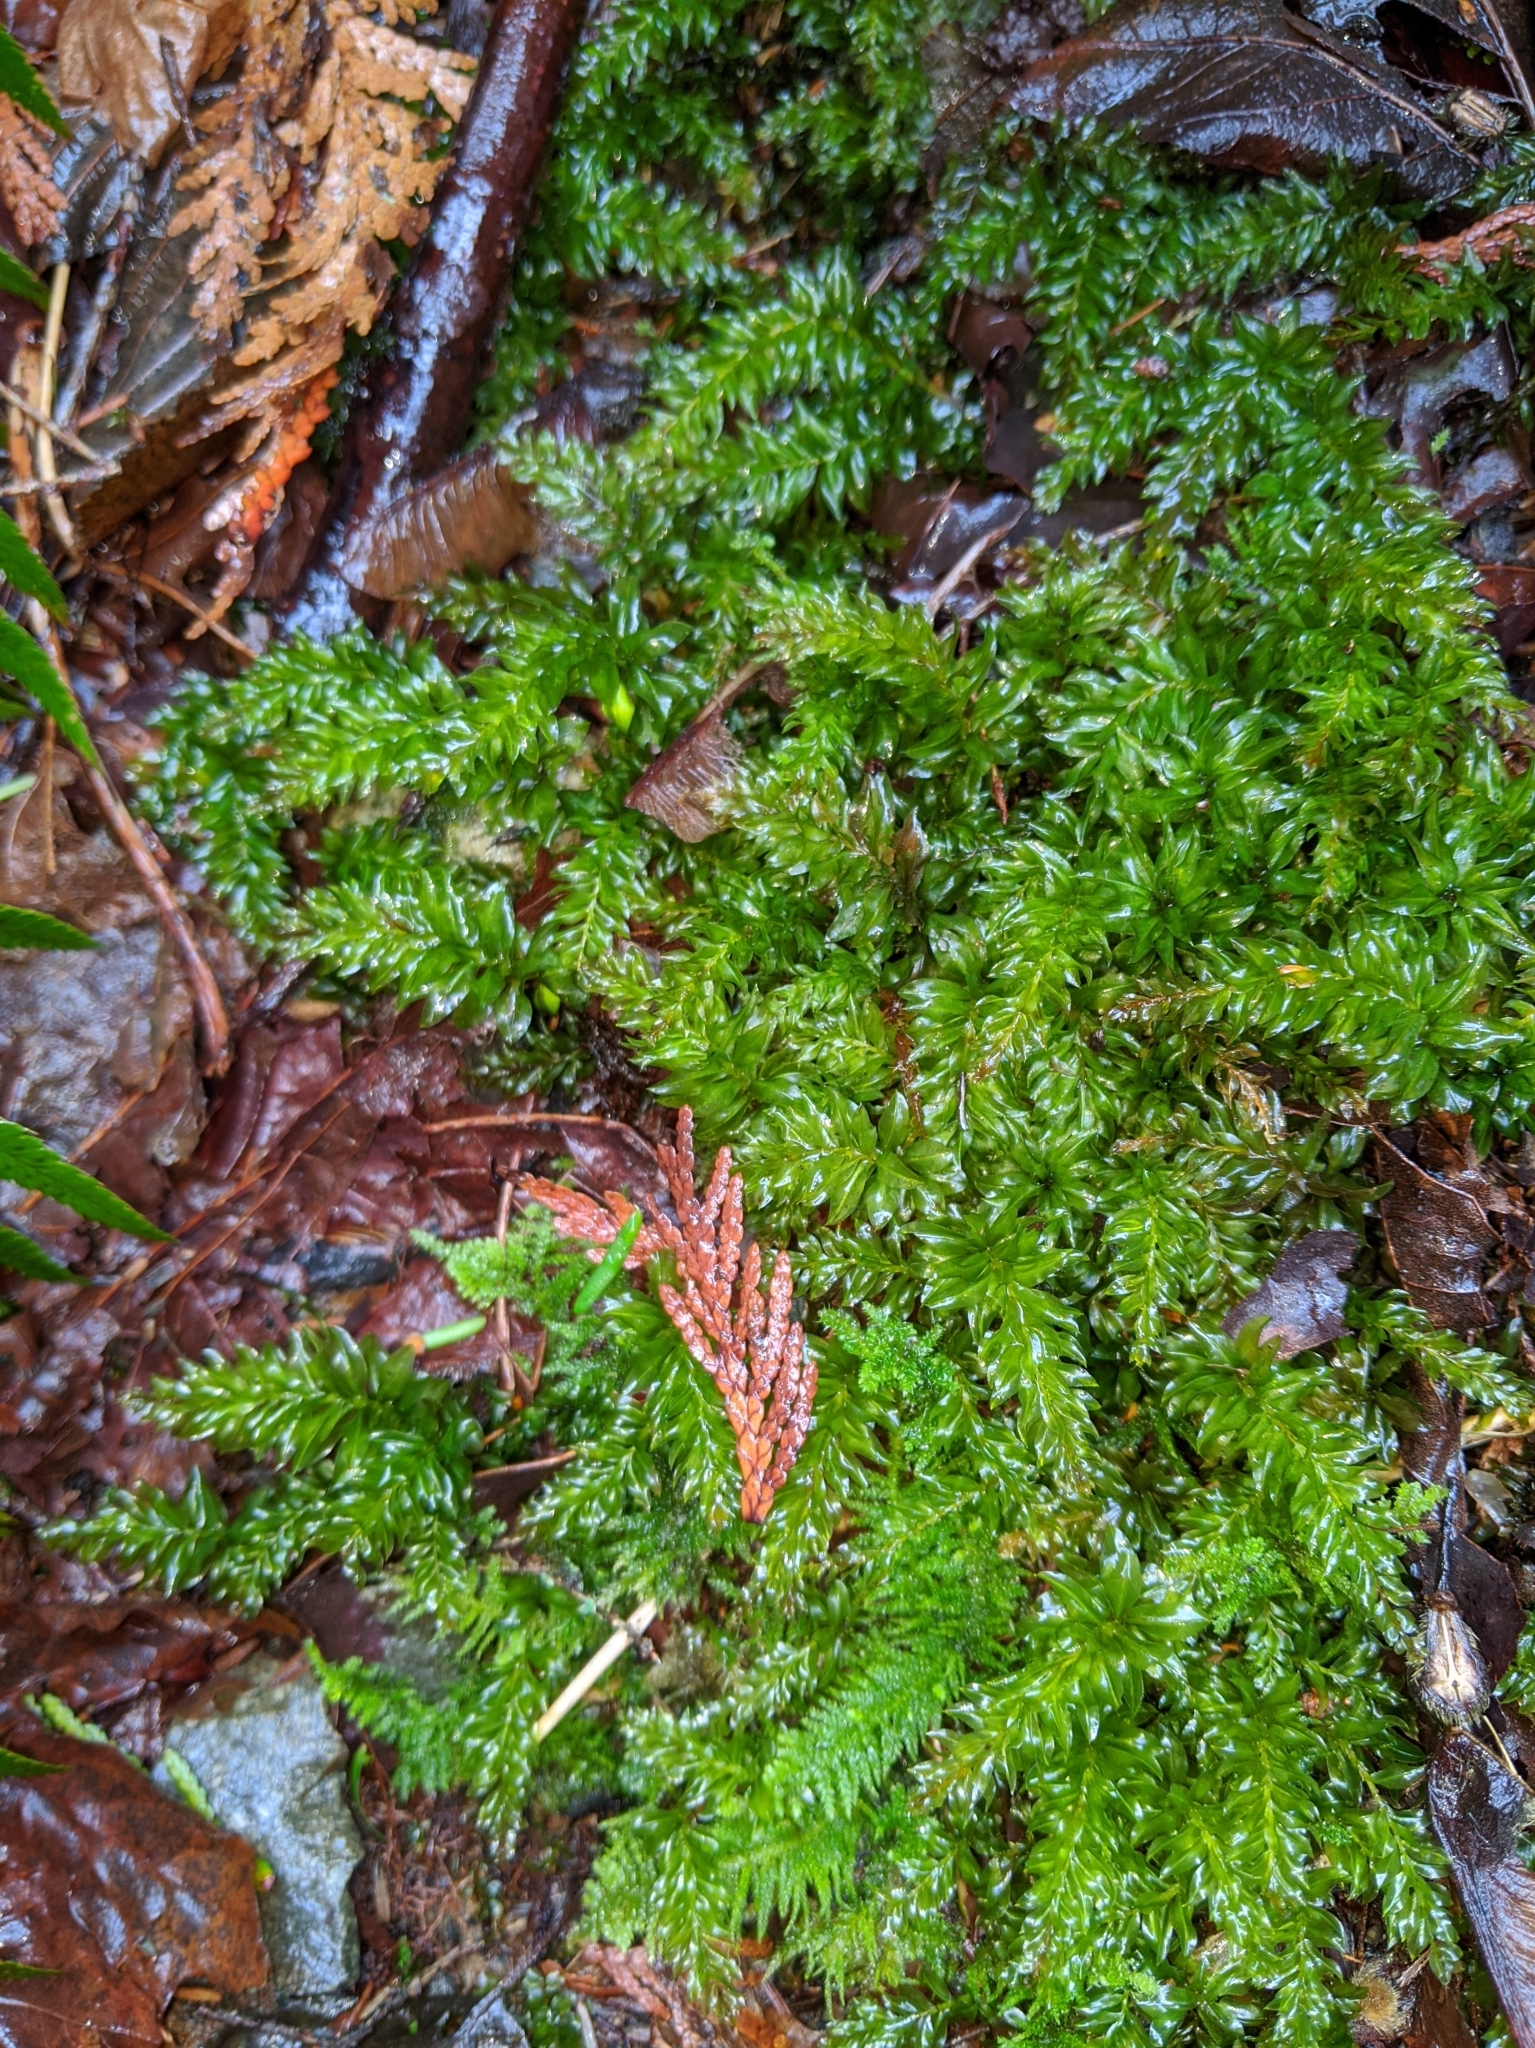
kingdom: Plantae
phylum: Bryophyta
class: Bryopsida
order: Bryales
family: Mniaceae
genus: Plagiomnium
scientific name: Plagiomnium insigne
